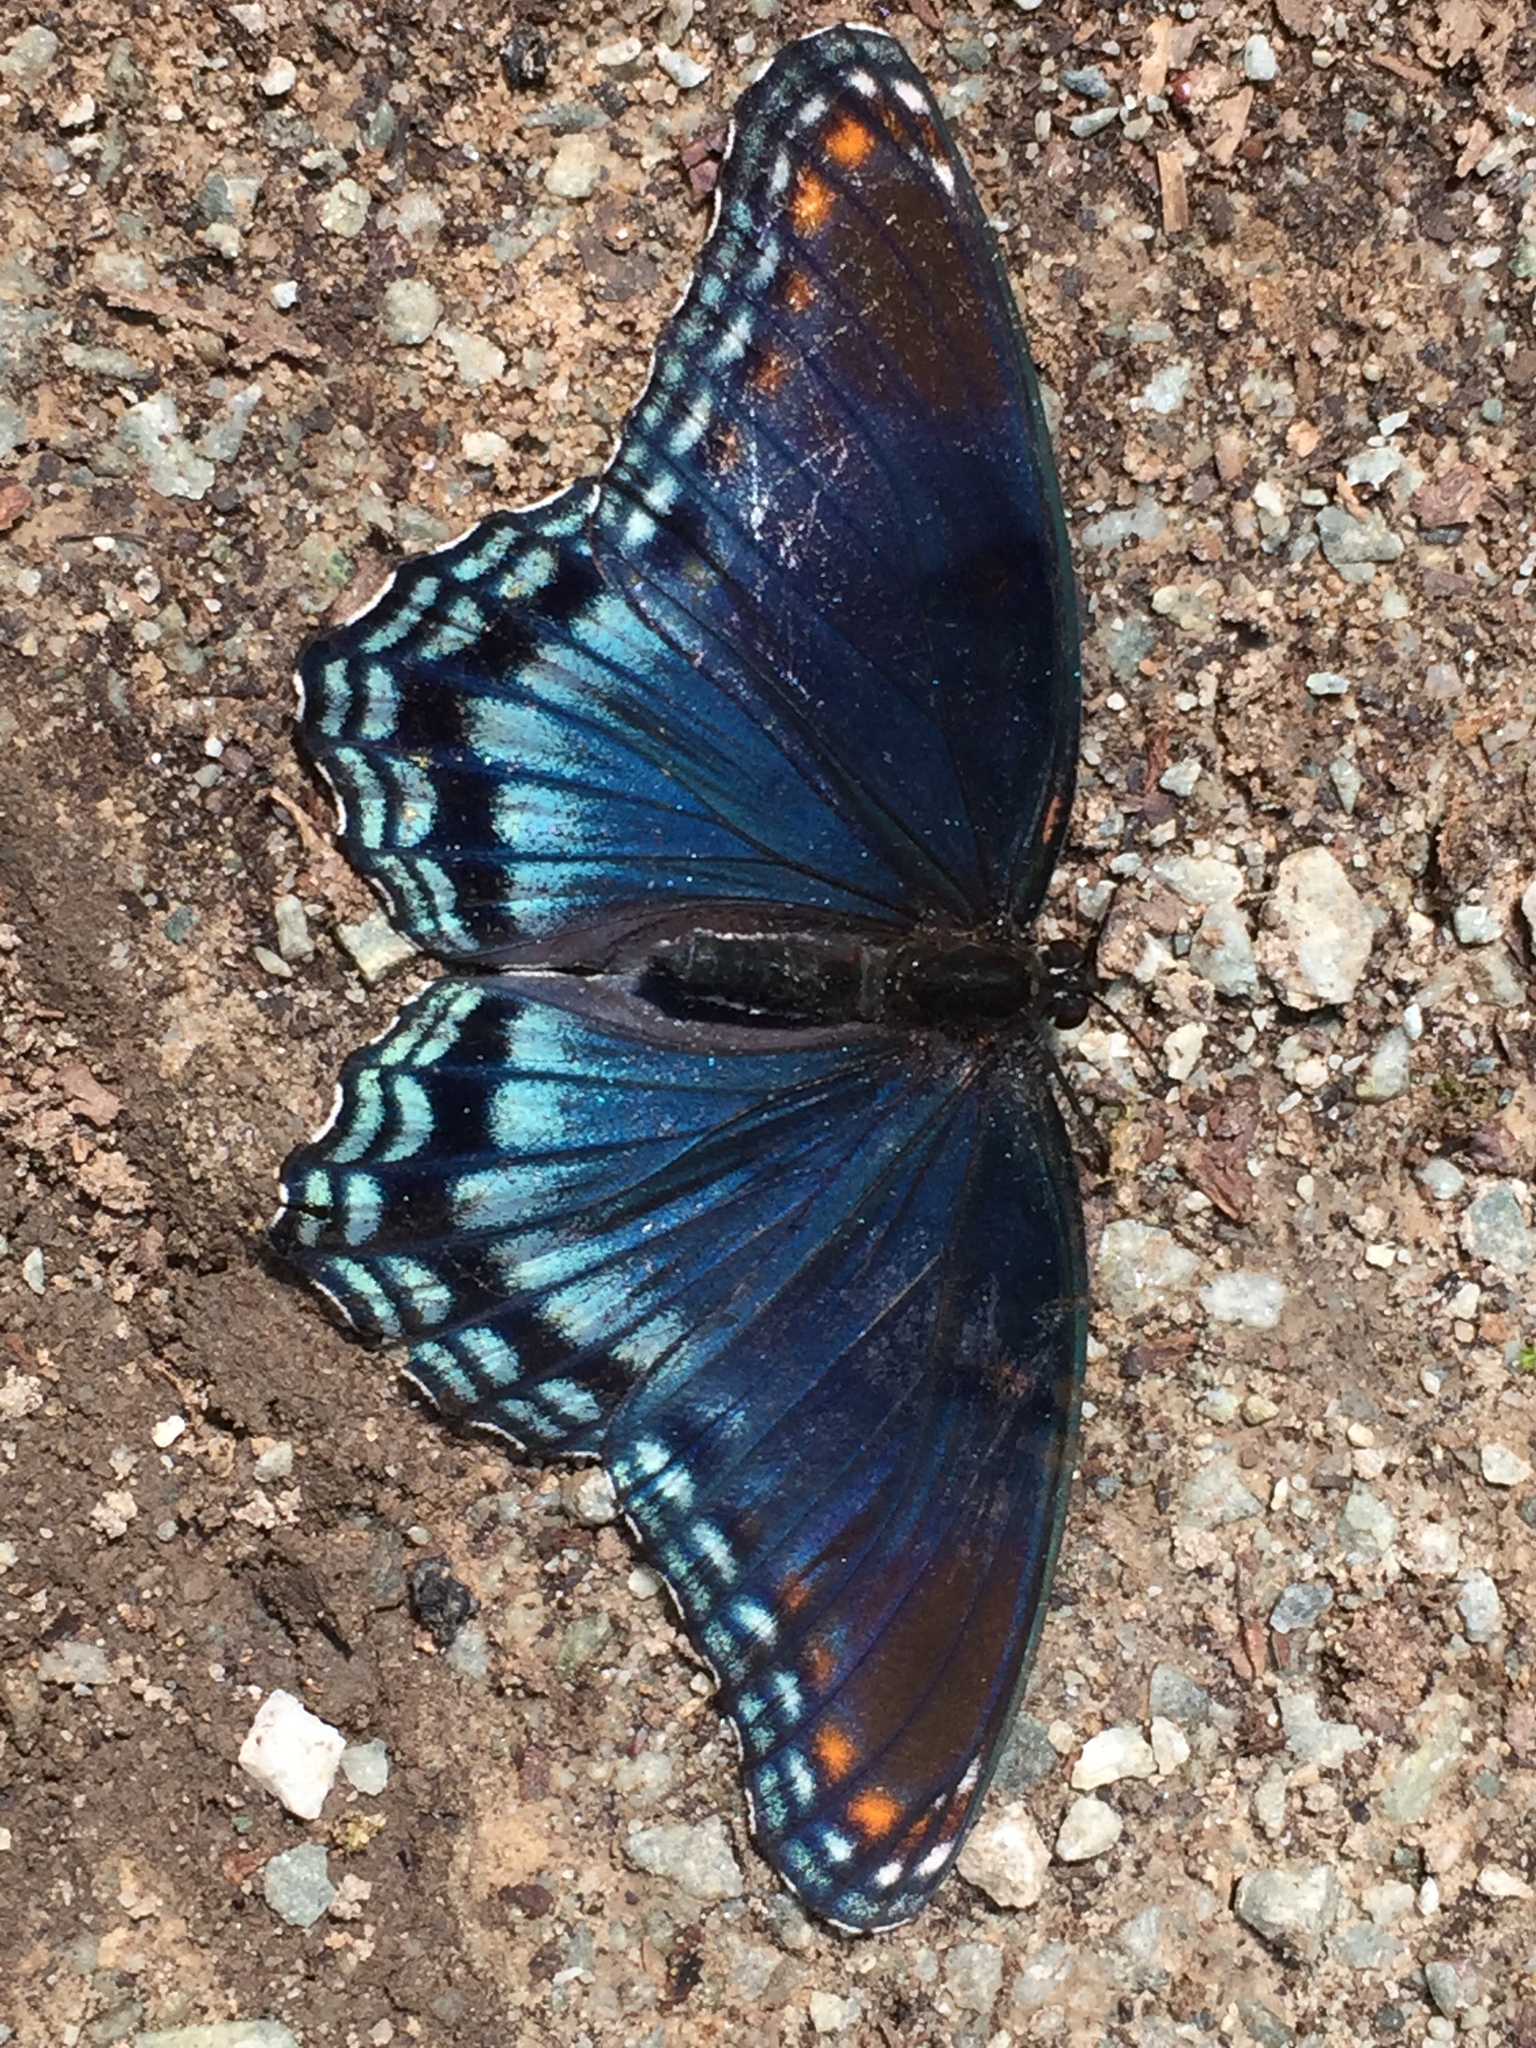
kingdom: Animalia
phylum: Arthropoda
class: Insecta
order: Lepidoptera
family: Nymphalidae
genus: Limenitis
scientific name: Limenitis arthemis
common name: Red-spotted admiral
